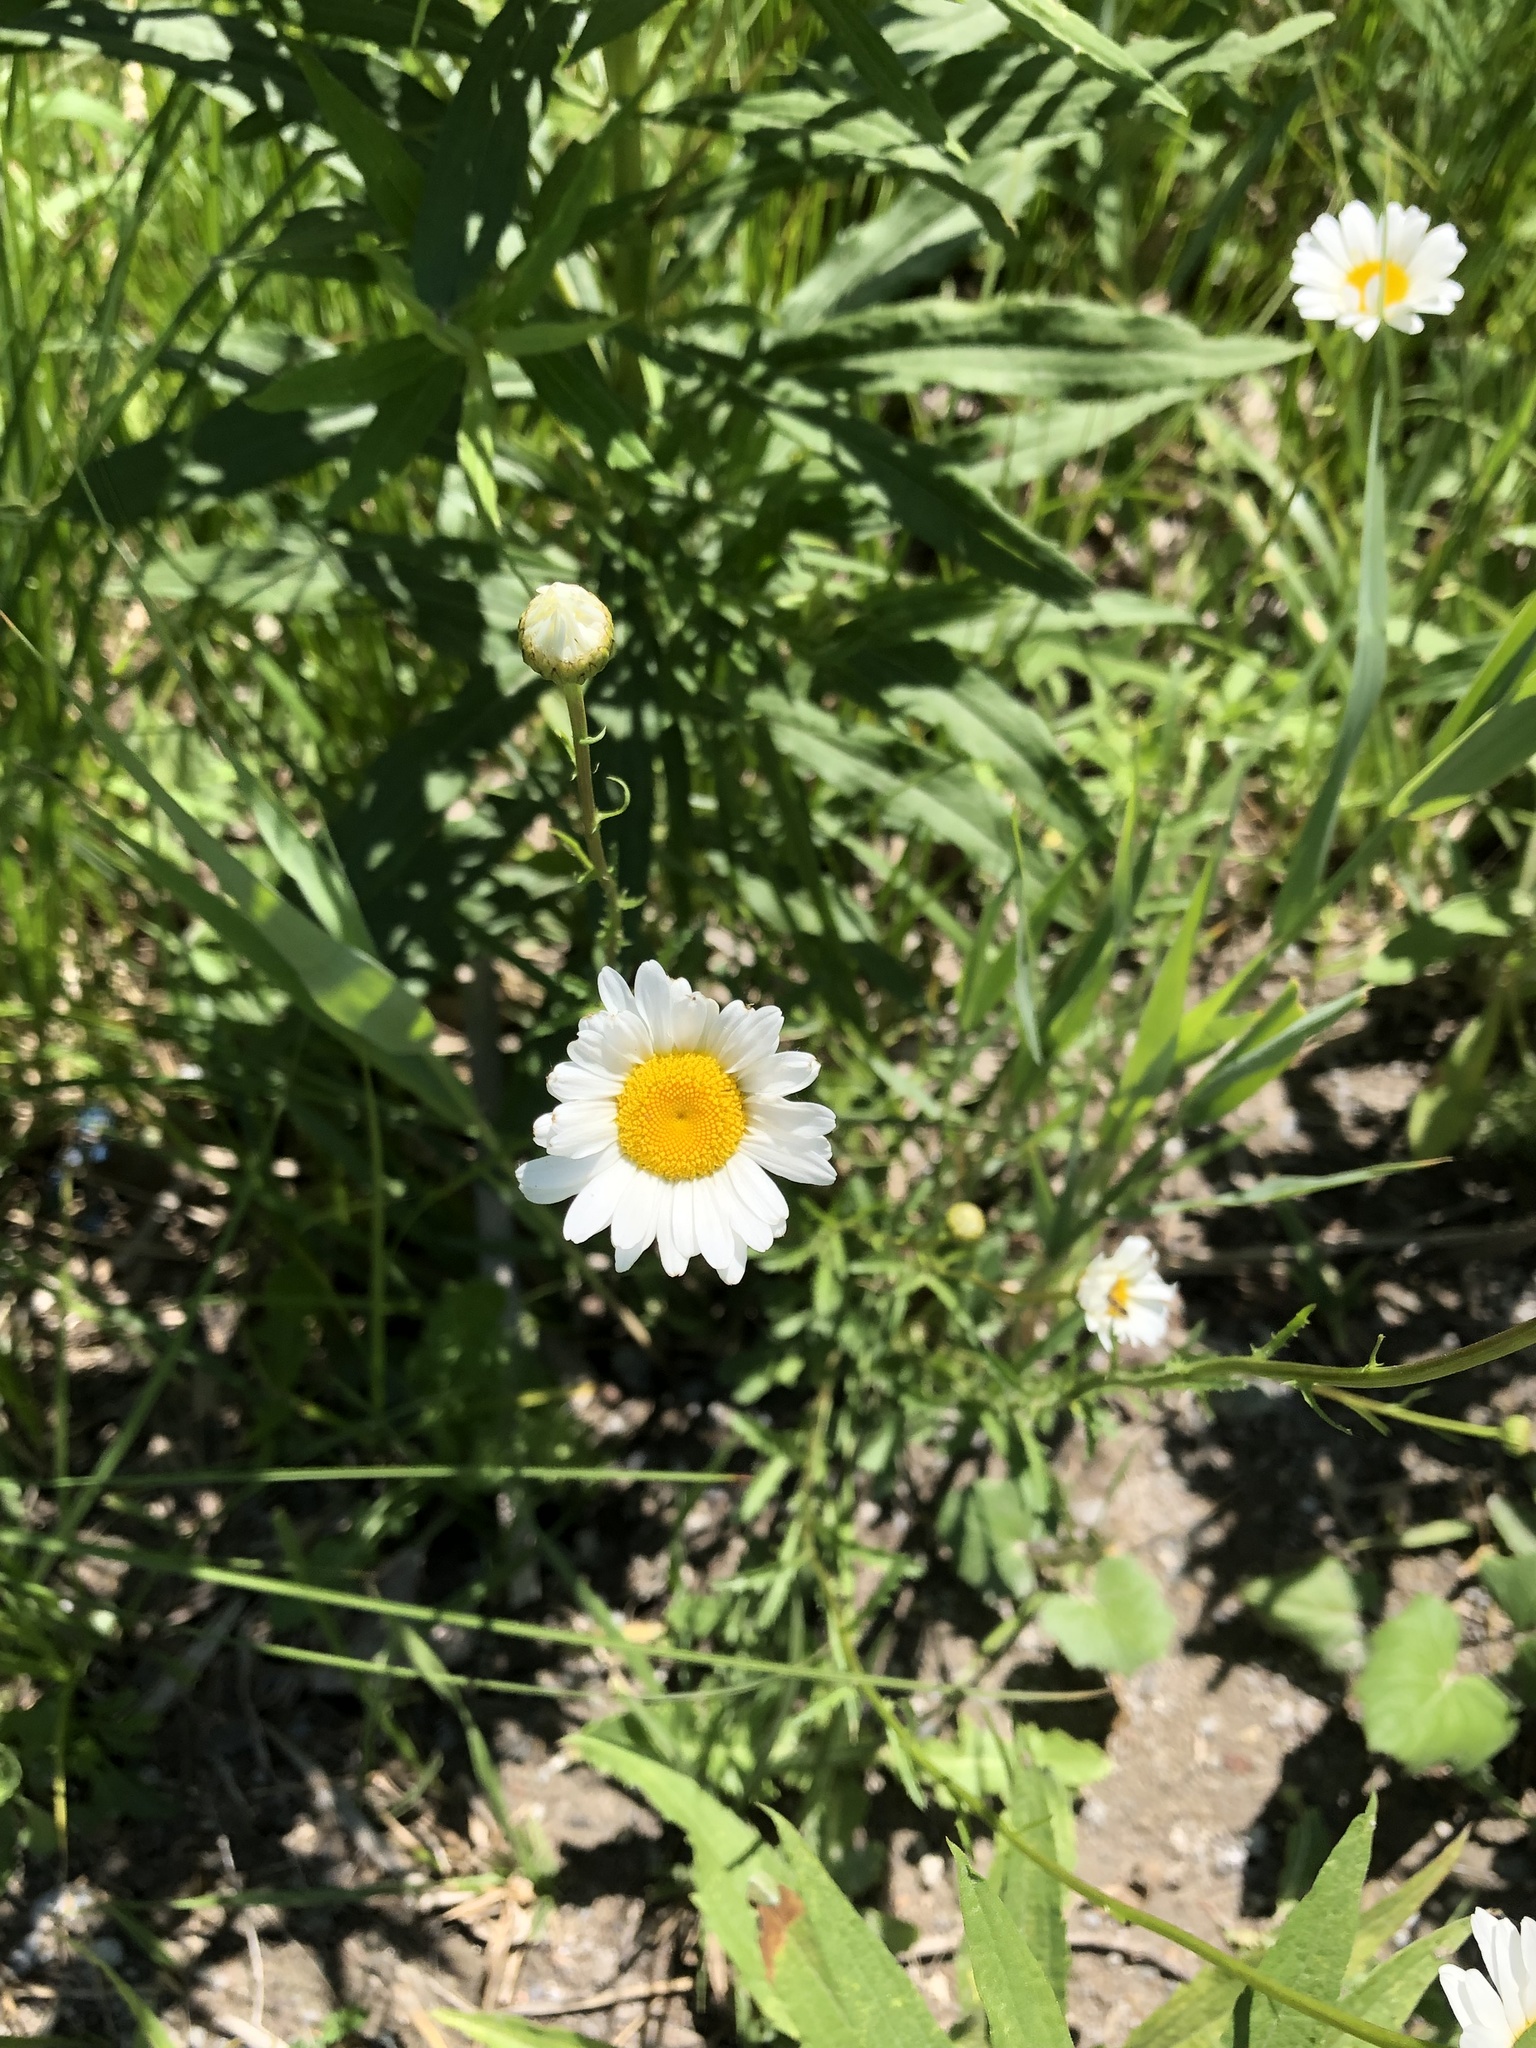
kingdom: Plantae
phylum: Tracheophyta
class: Magnoliopsida
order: Asterales
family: Asteraceae
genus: Leucanthemum
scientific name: Leucanthemum vulgare
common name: Oxeye daisy
